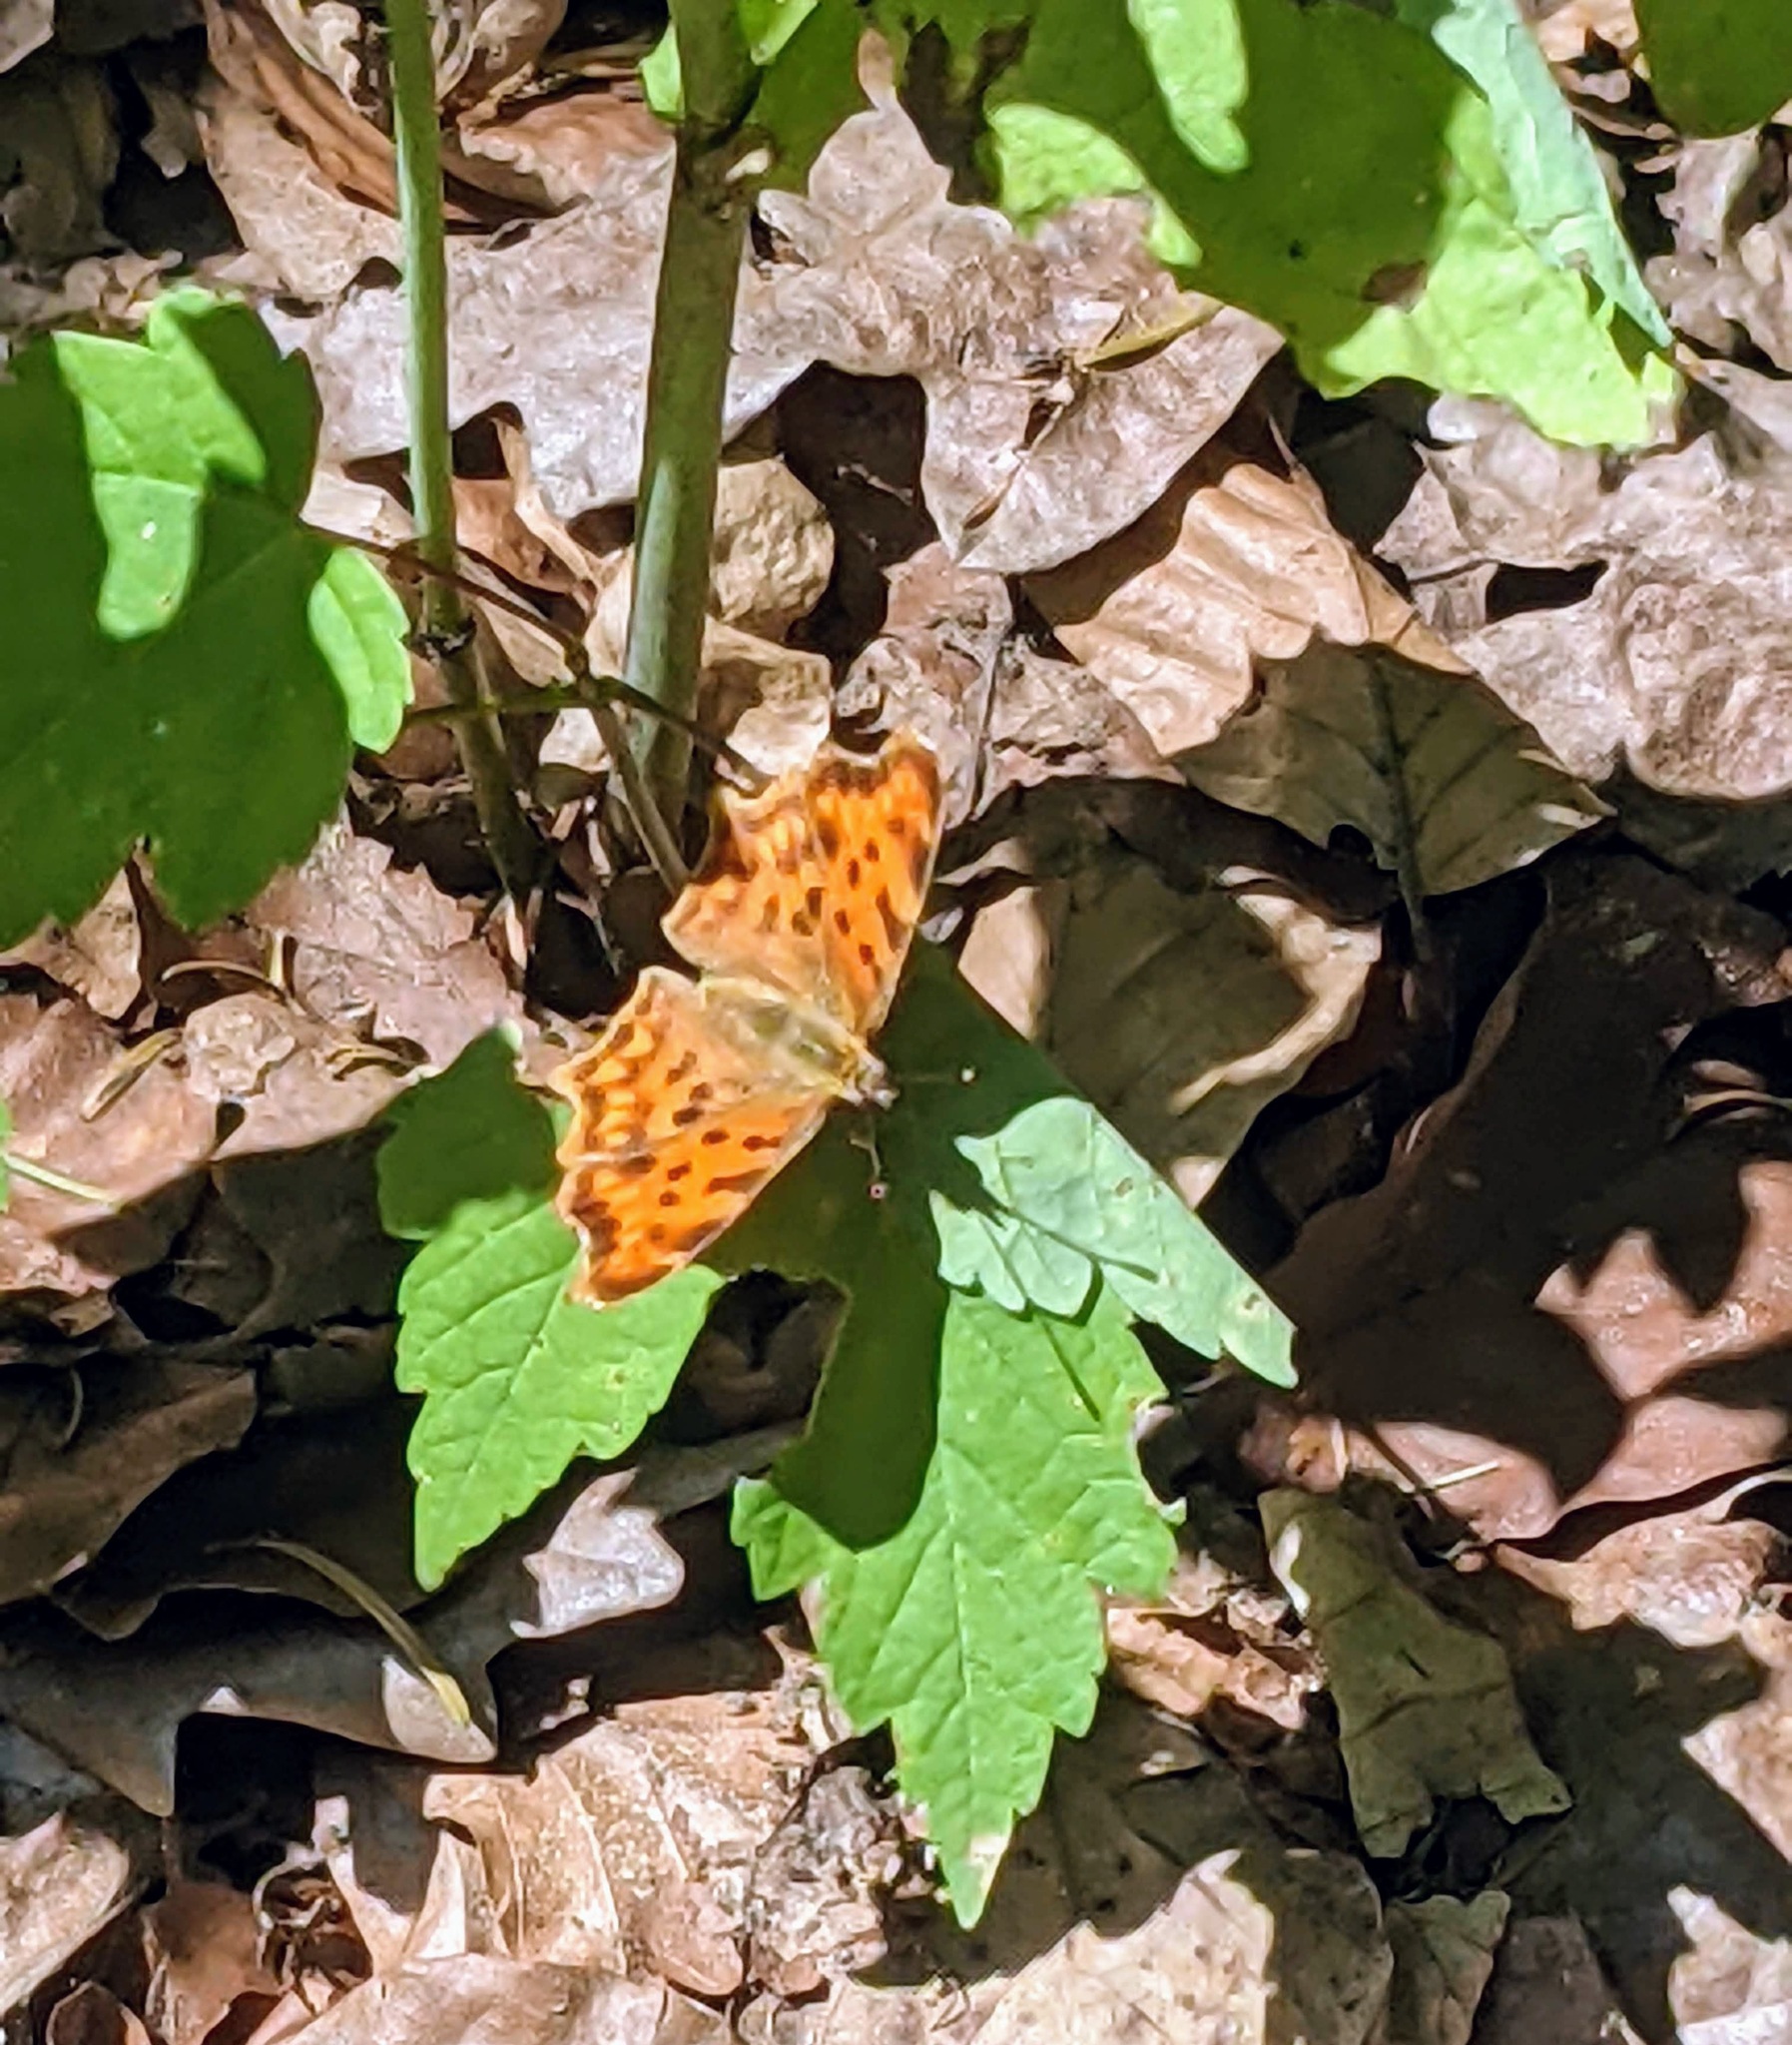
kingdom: Animalia
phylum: Arthropoda
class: Insecta
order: Lepidoptera
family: Nymphalidae
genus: Polygonia
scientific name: Polygonia c-album
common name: Comma
